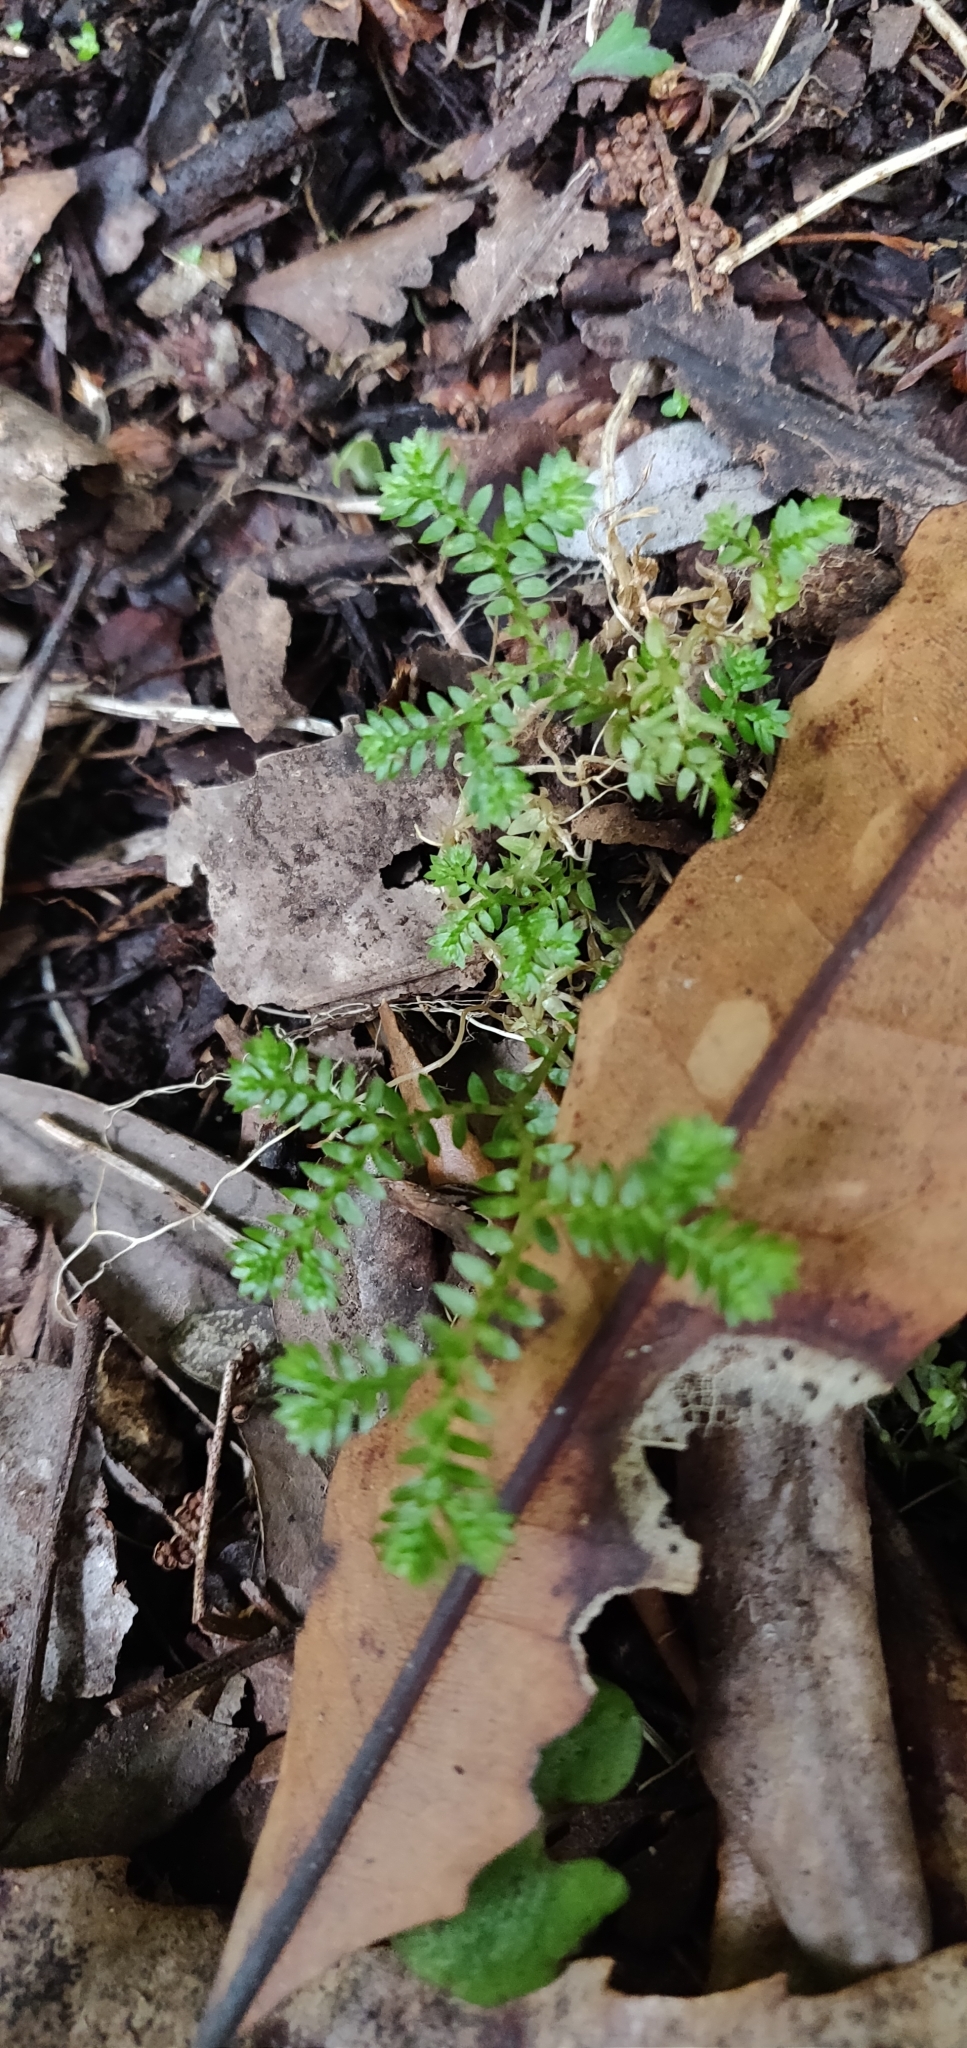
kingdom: Plantae
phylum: Tracheophyta
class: Lycopodiopsida
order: Selaginellales
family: Selaginellaceae
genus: Selaginella
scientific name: Selaginella kraussiana
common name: Krauss' spikemoss
